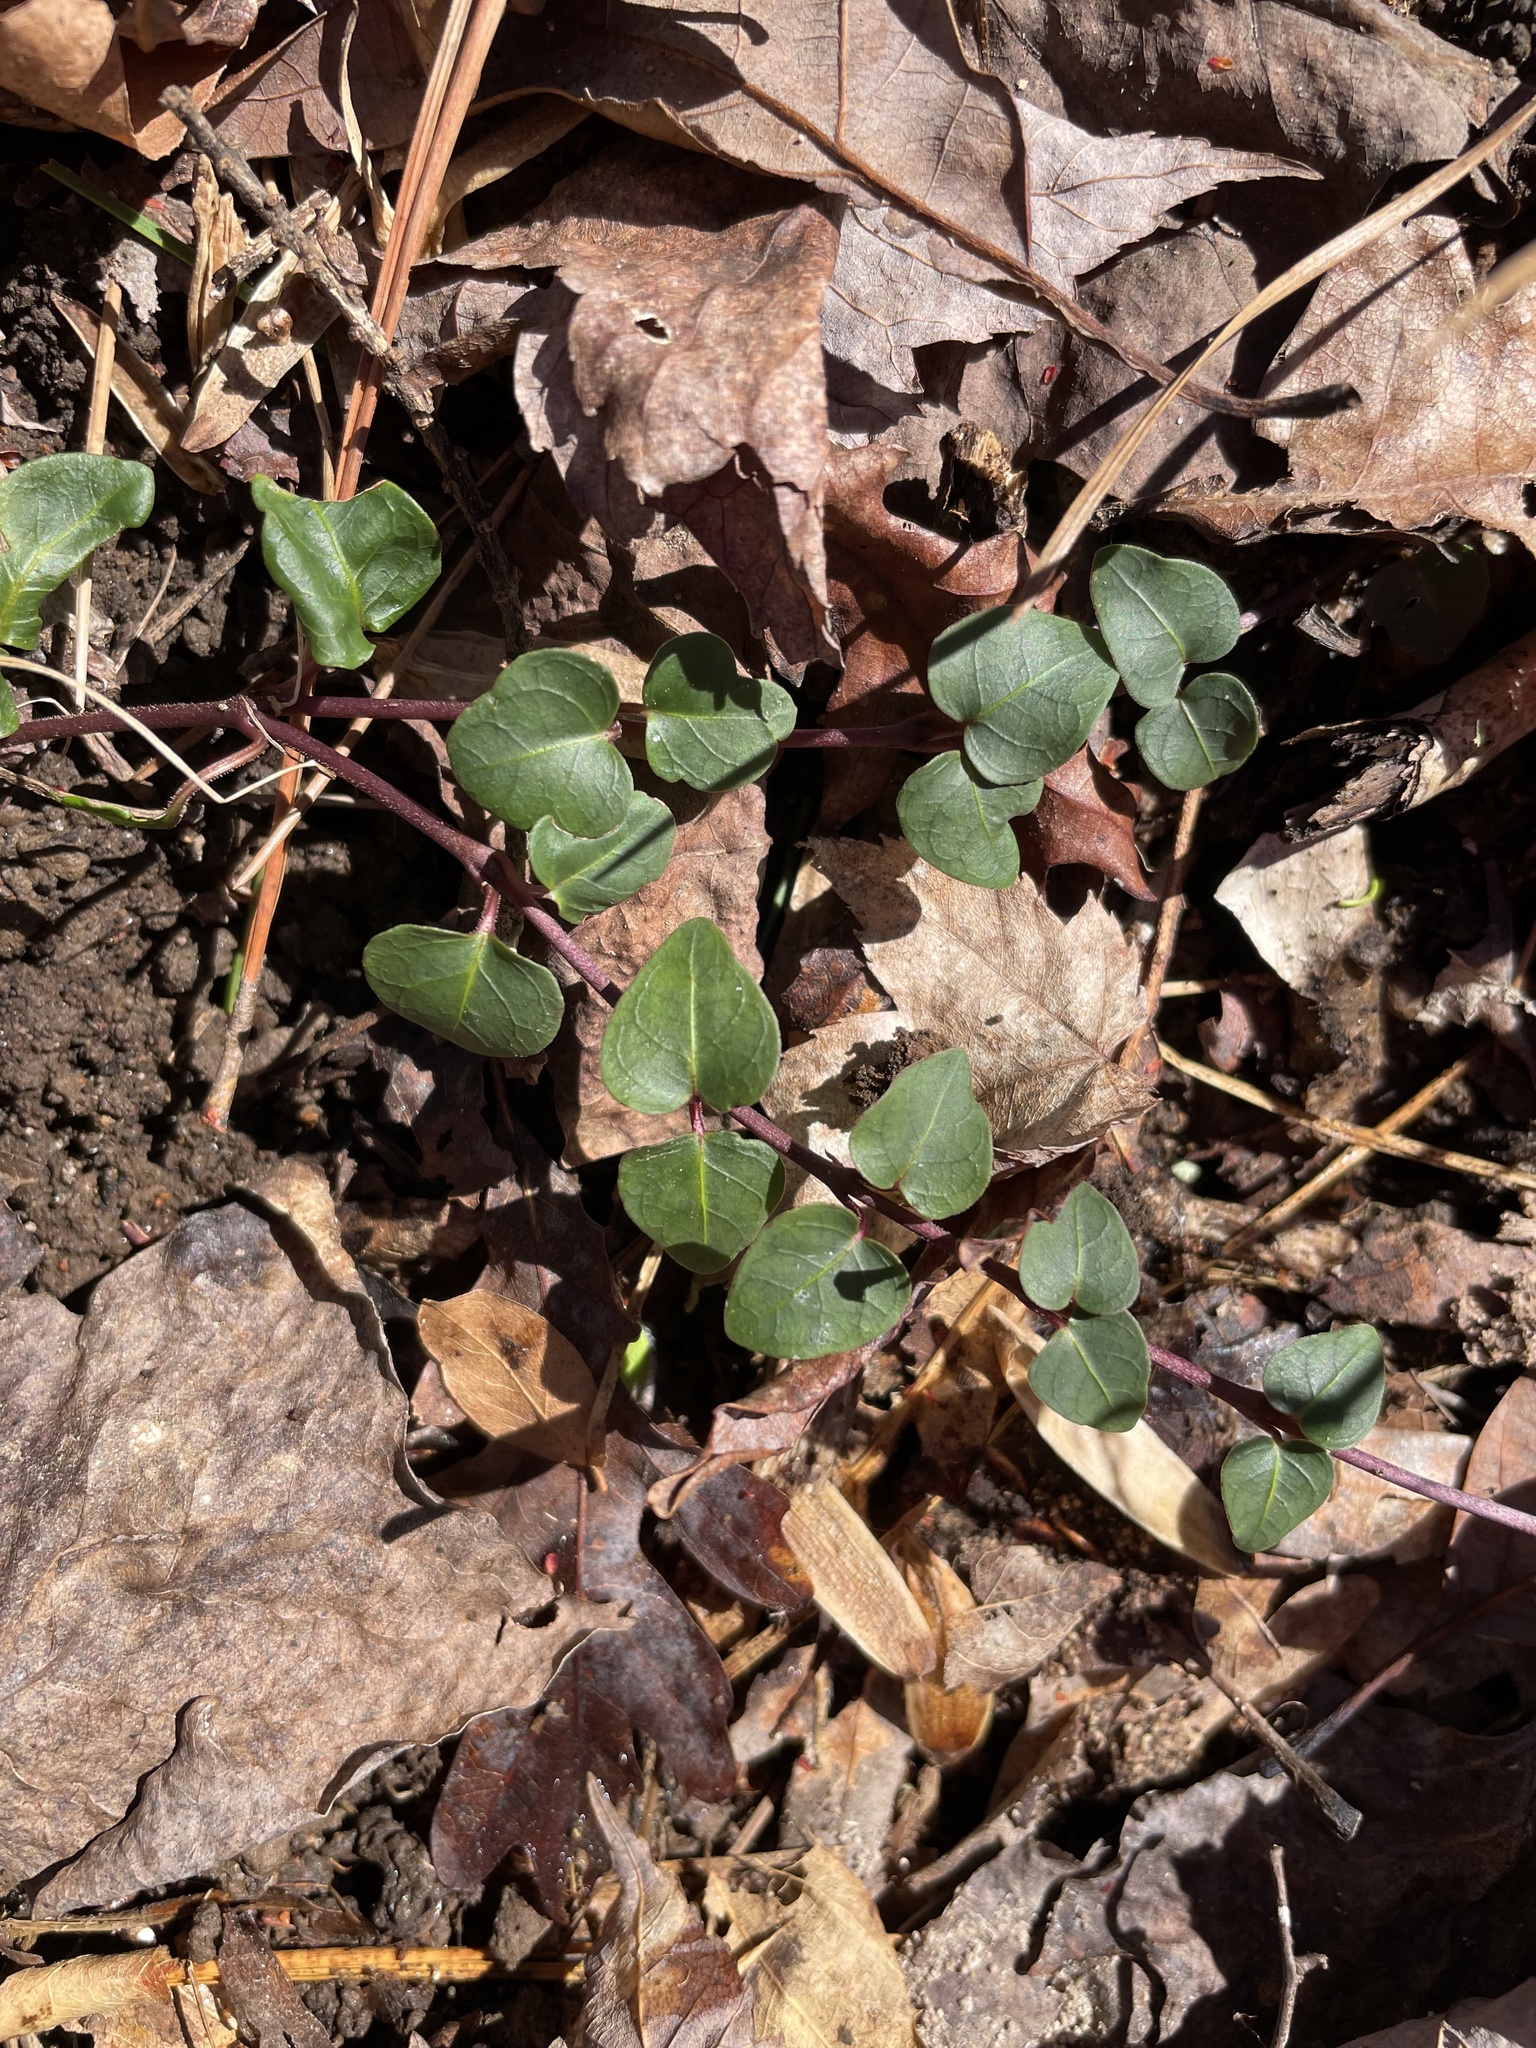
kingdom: Plantae
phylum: Tracheophyta
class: Magnoliopsida
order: Gentianales
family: Rubiaceae
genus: Mitchella
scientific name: Mitchella repens
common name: Partridge-berry
